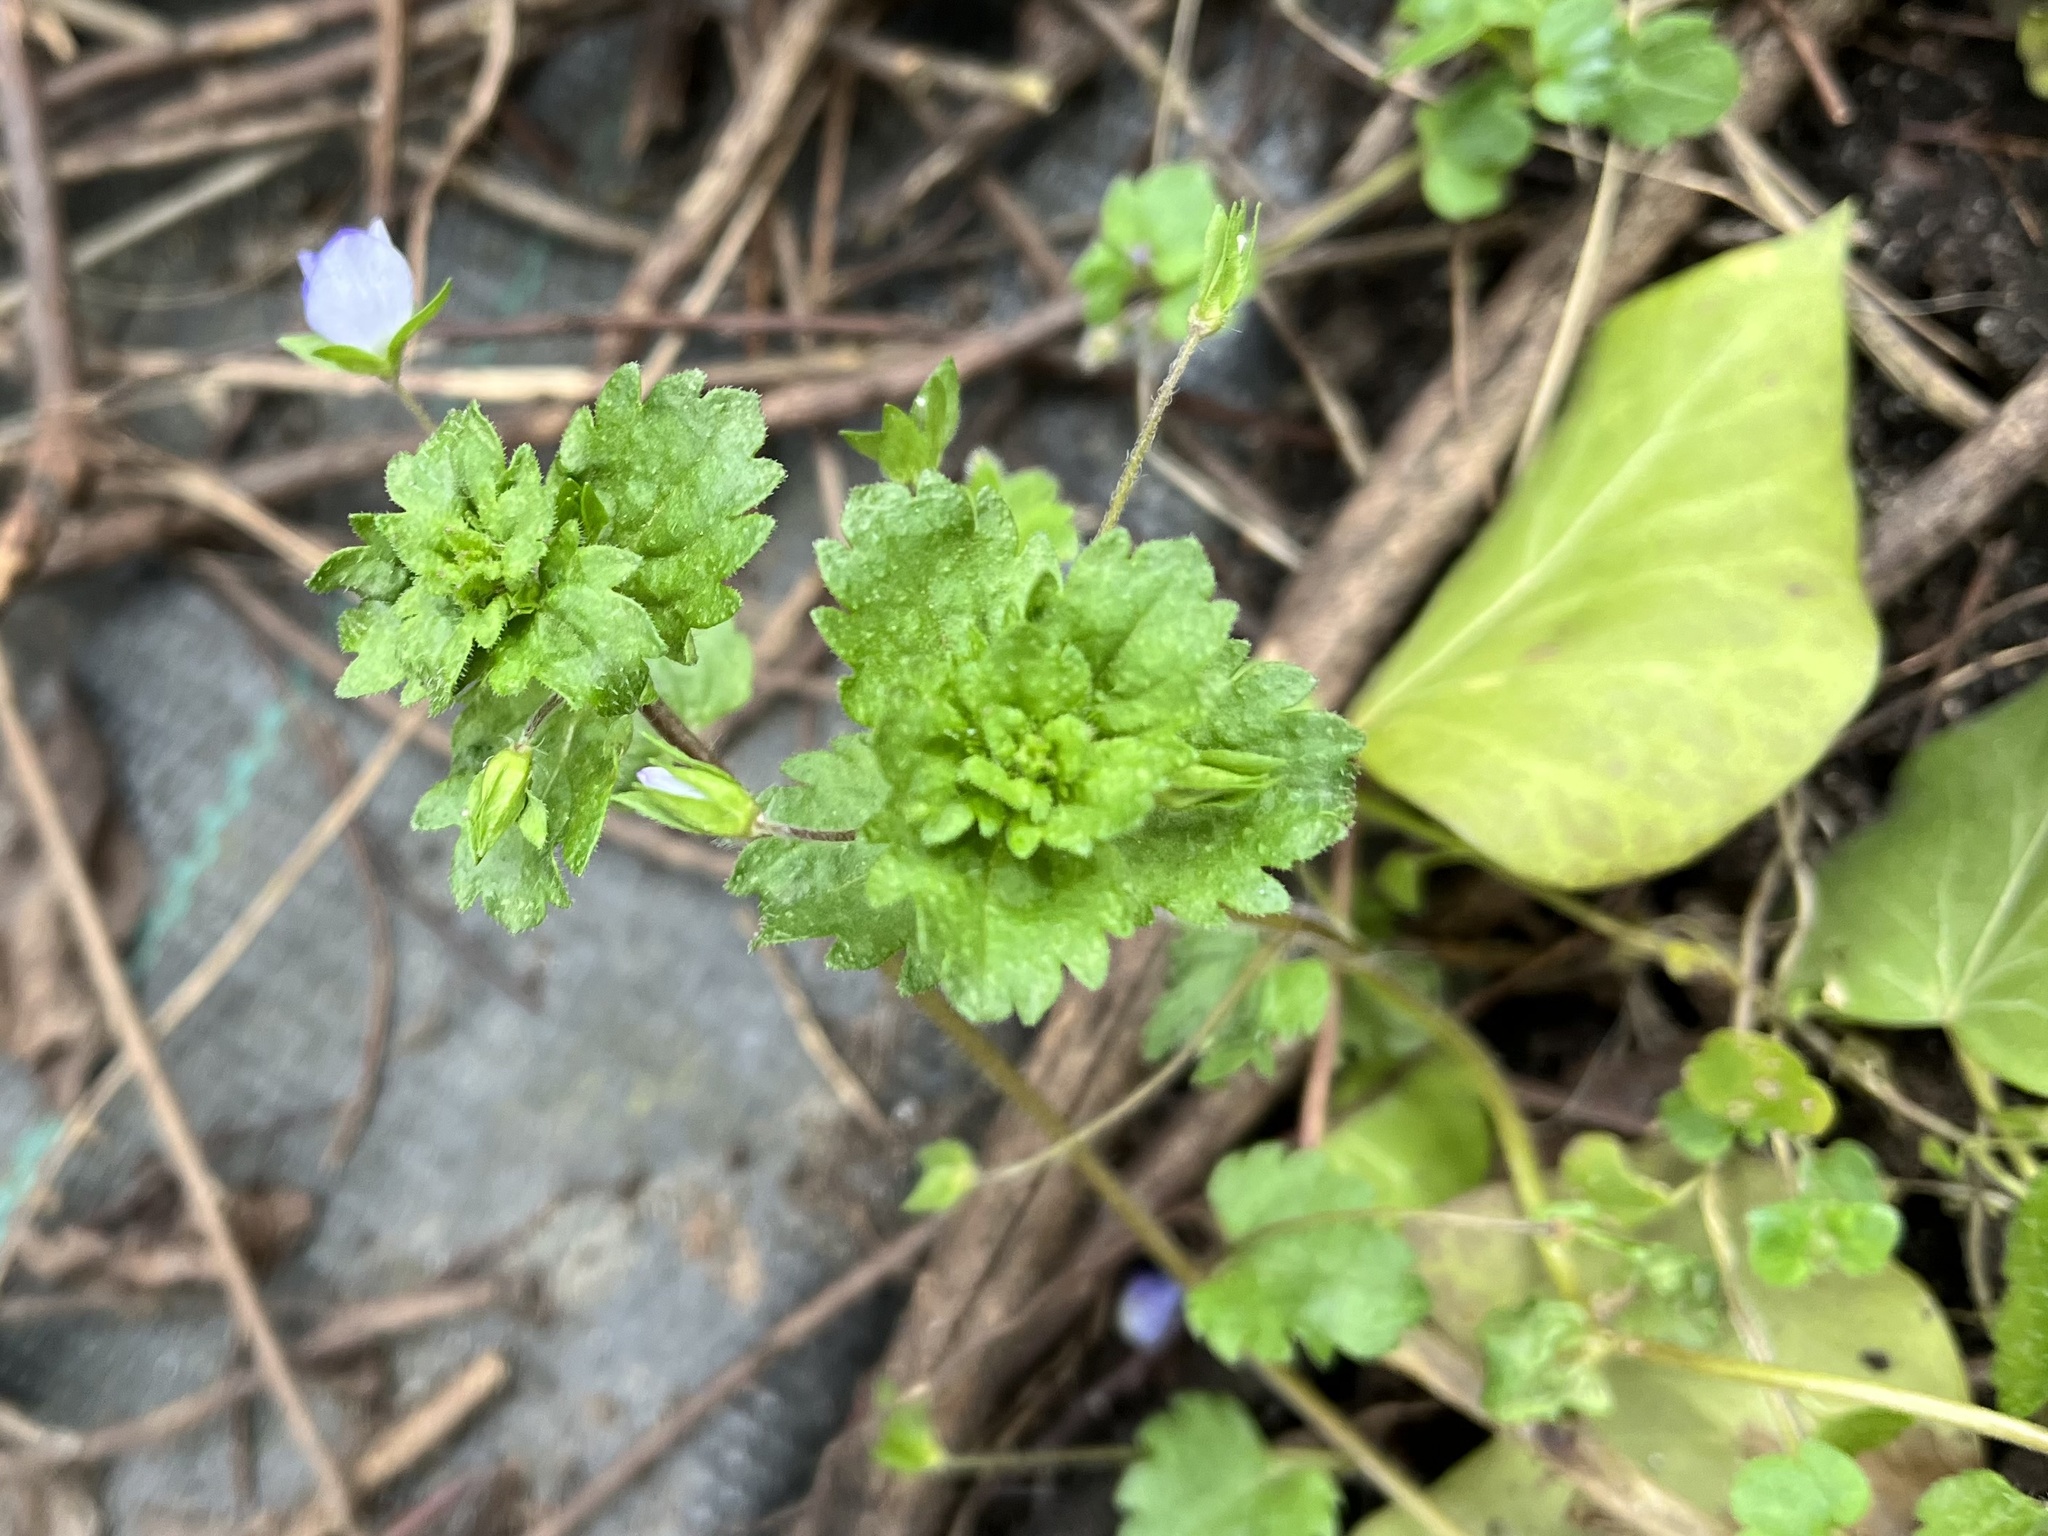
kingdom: Plantae
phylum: Tracheophyta
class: Magnoliopsida
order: Lamiales
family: Plantaginaceae
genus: Veronica
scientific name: Veronica persica
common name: Common field-speedwell
